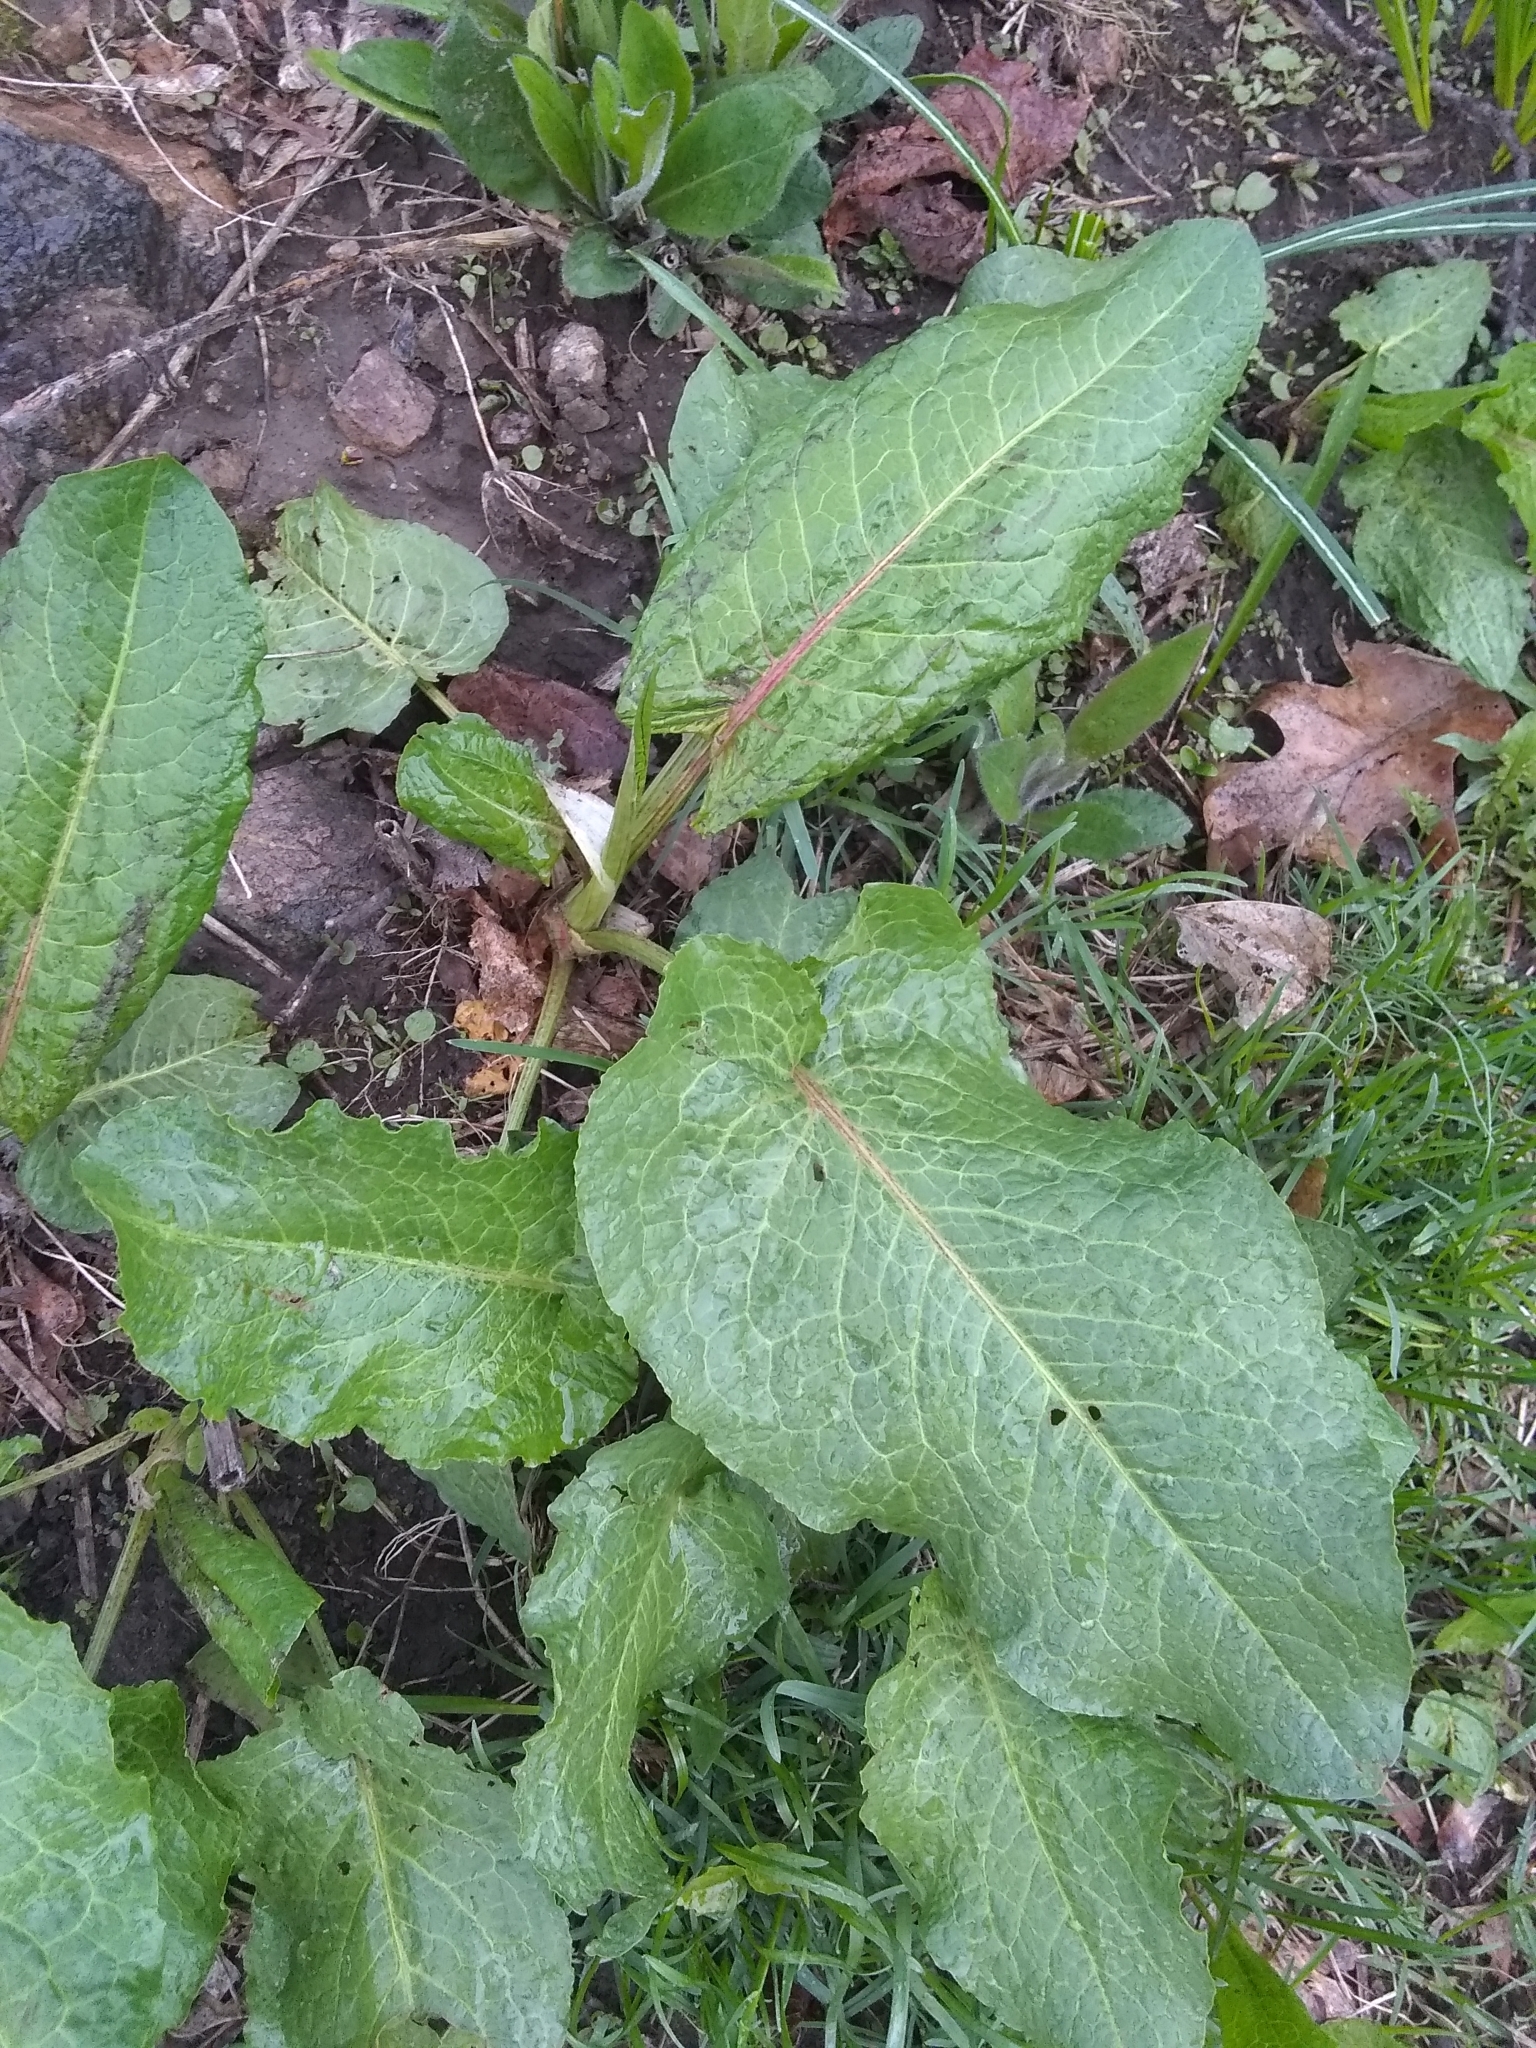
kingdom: Plantae
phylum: Tracheophyta
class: Magnoliopsida
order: Caryophyllales
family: Polygonaceae
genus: Rumex
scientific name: Rumex obtusifolius
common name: Bitter dock
